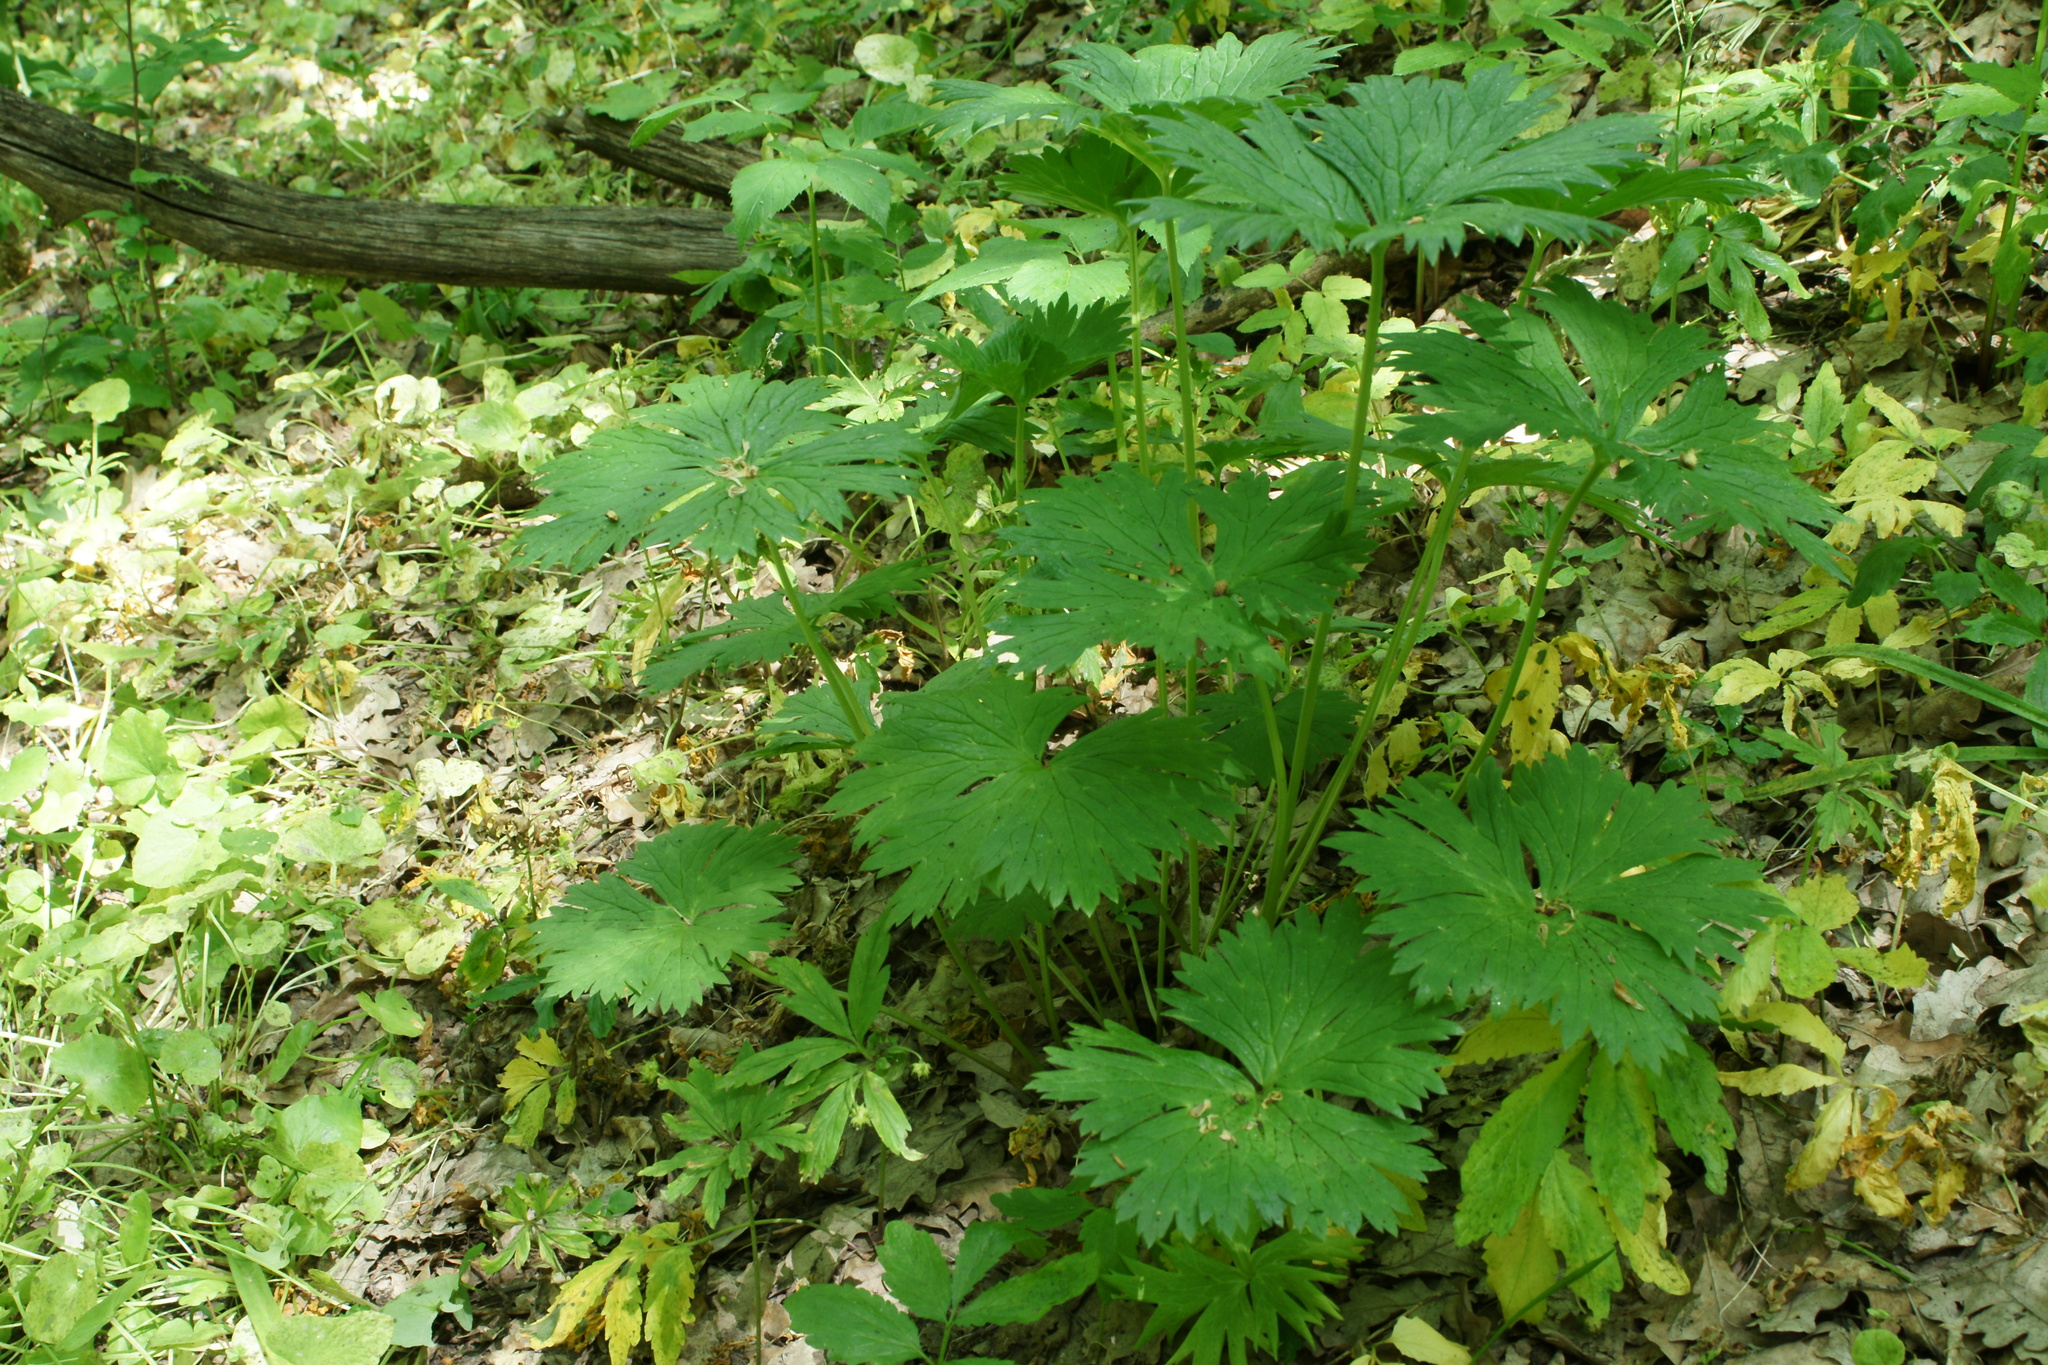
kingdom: Plantae
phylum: Tracheophyta
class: Magnoliopsida
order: Ranunculales
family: Ranunculaceae
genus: Aconitum
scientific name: Aconitum lasiostomum
